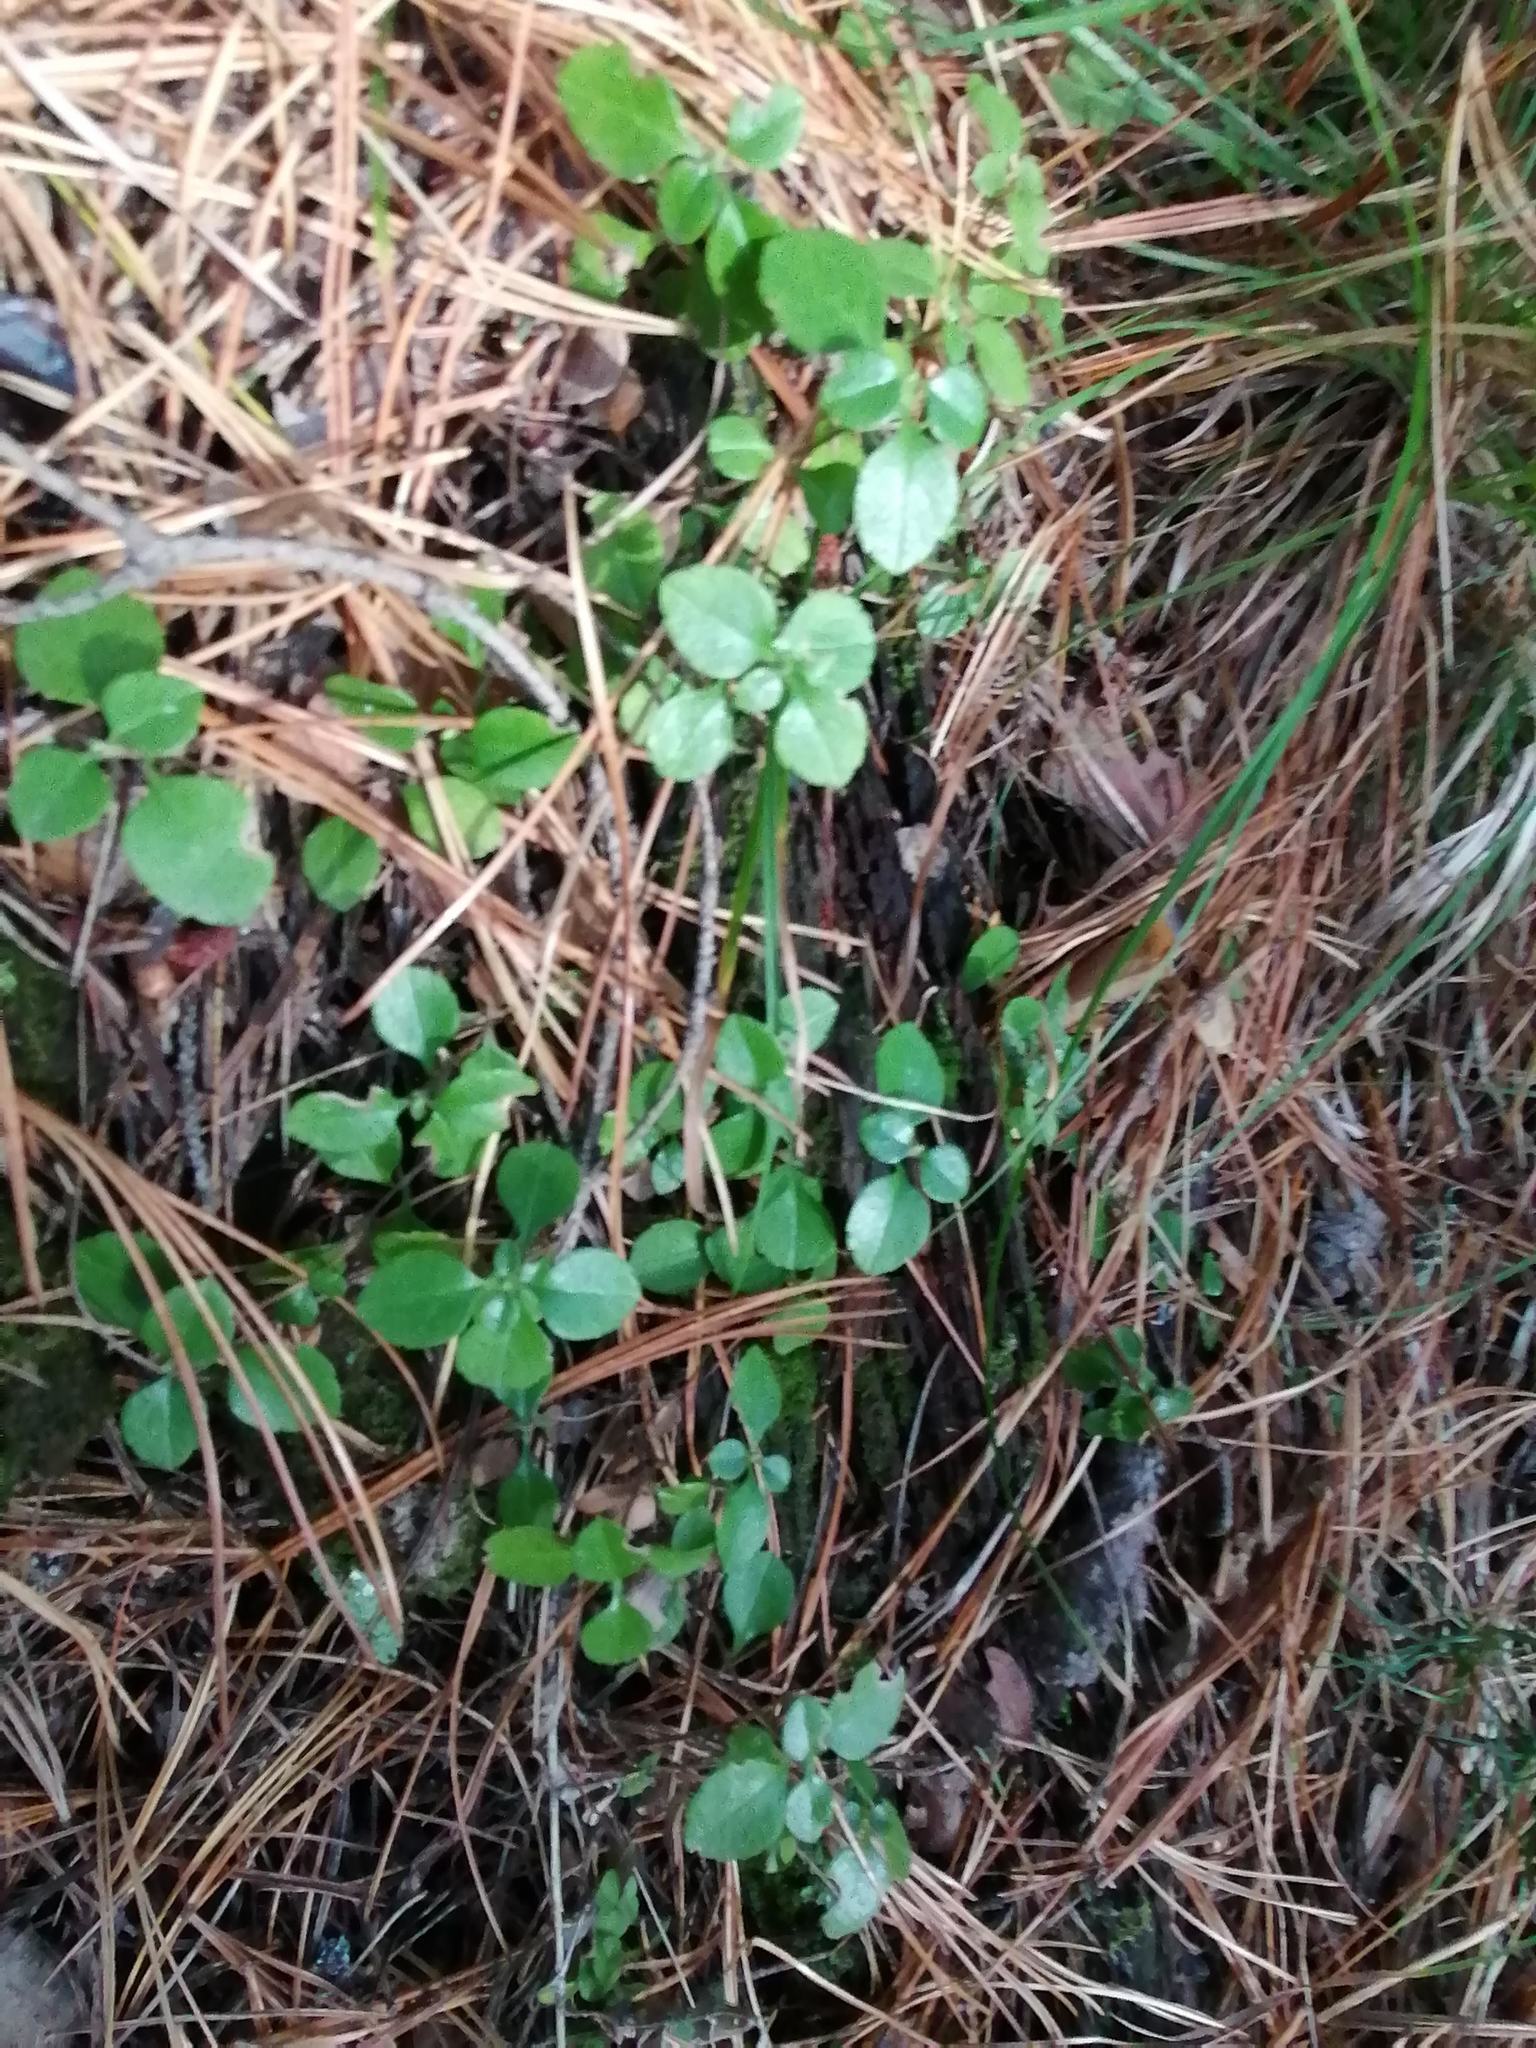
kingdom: Plantae
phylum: Tracheophyta
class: Magnoliopsida
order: Dipsacales
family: Caprifoliaceae
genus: Linnaea
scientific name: Linnaea borealis
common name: Twinflower
